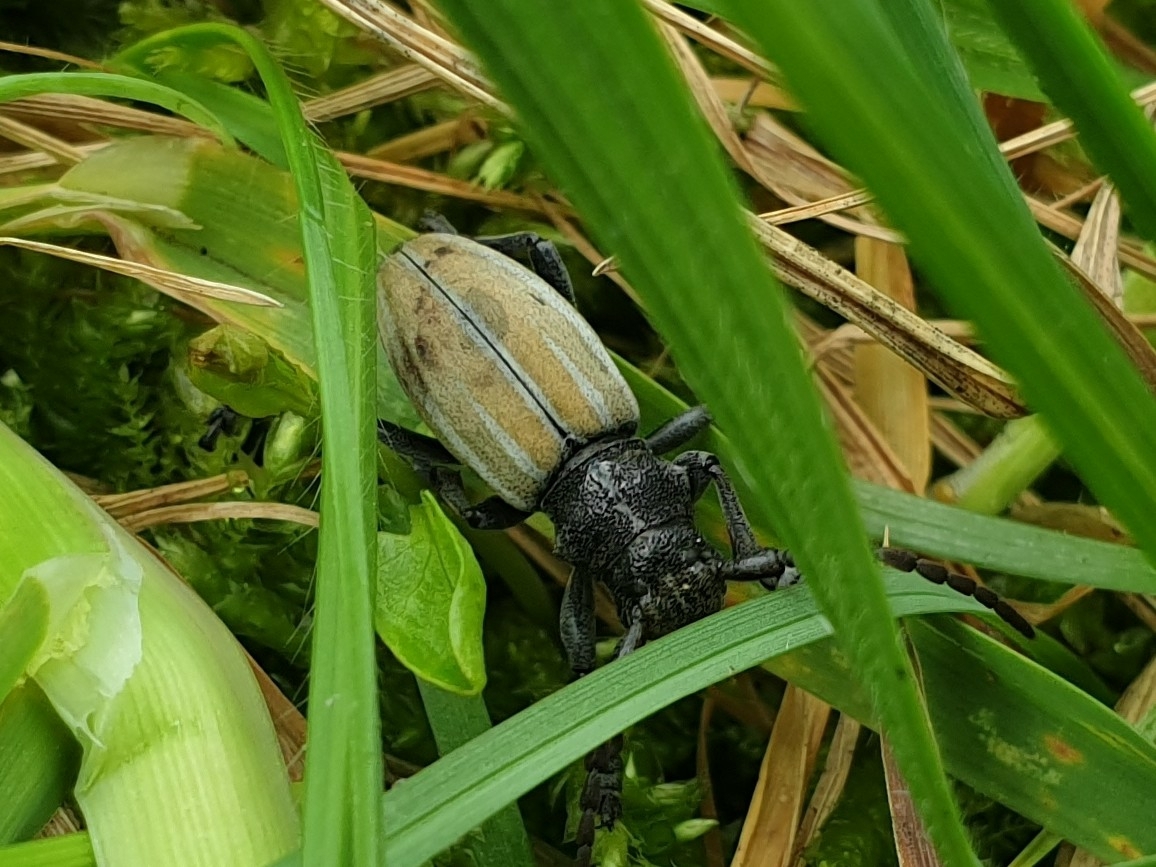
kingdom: Animalia
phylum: Arthropoda
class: Insecta
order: Coleoptera
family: Cerambycidae
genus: Iberodorcadion
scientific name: Iberodorcadion fuliginator
